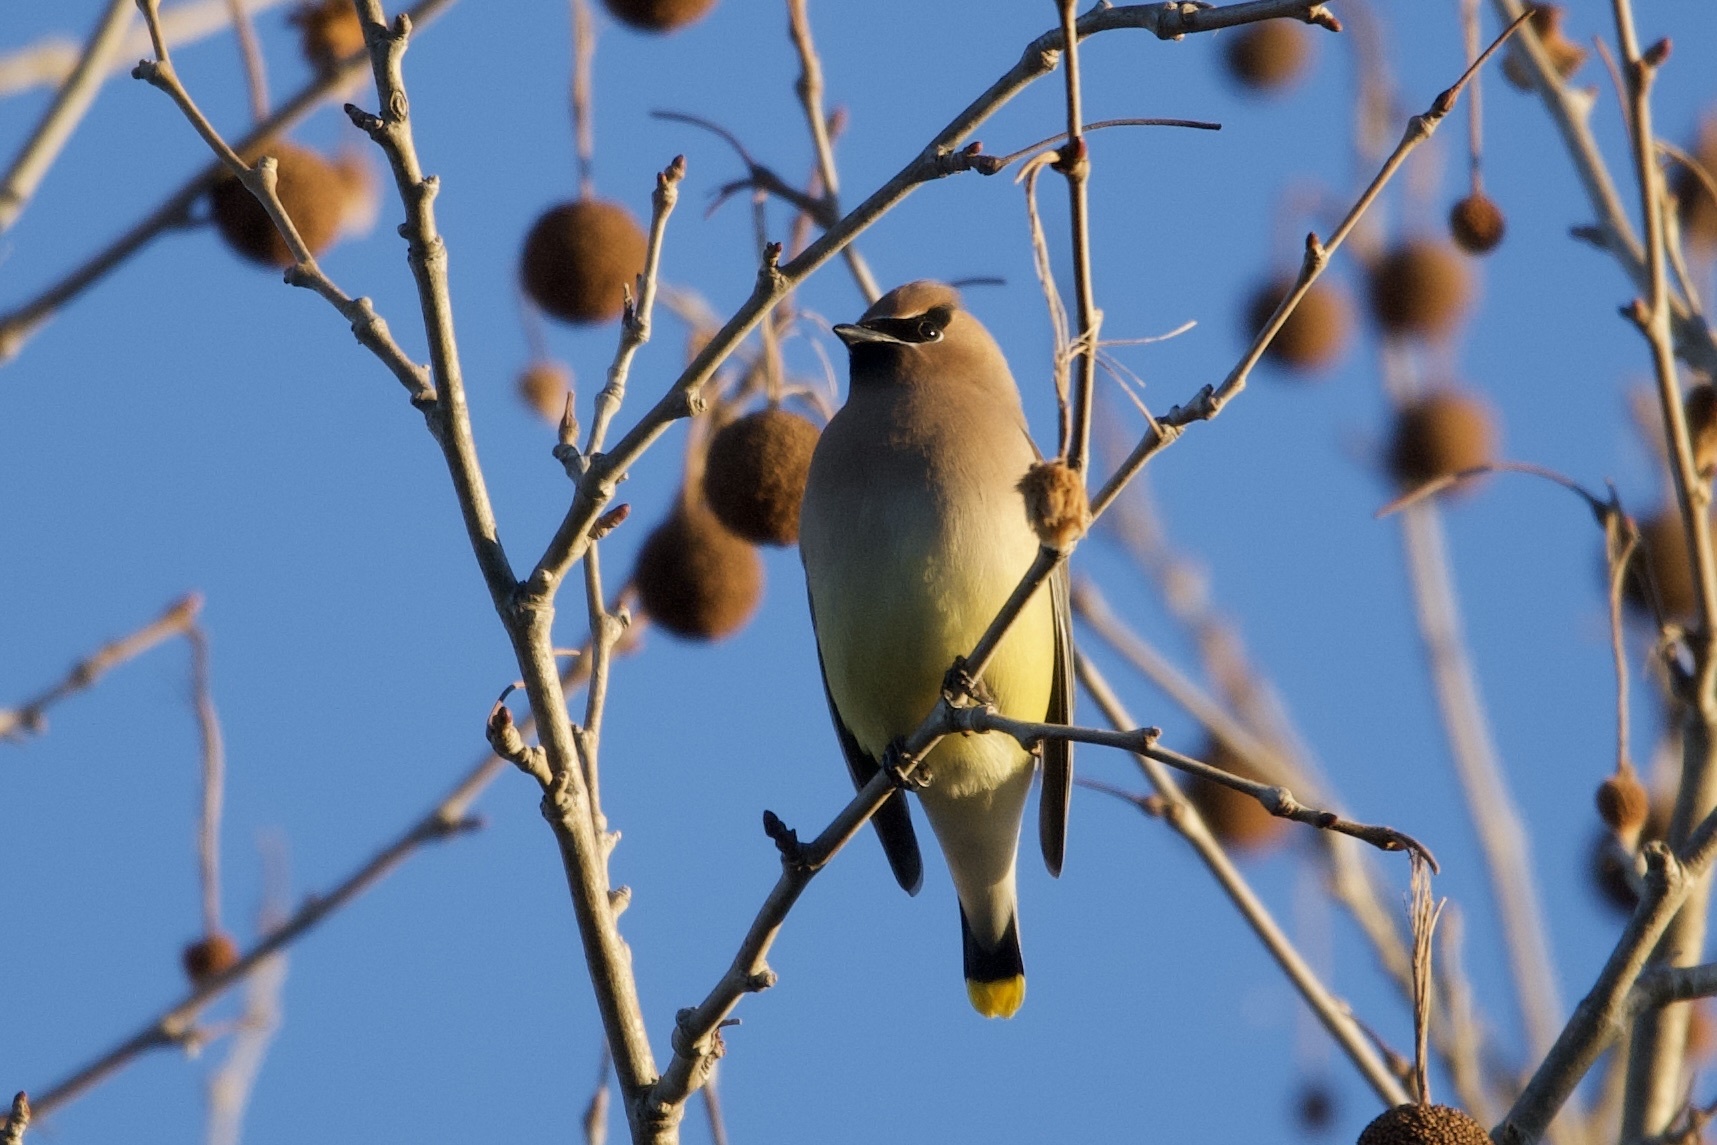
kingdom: Animalia
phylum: Chordata
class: Aves
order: Passeriformes
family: Bombycillidae
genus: Bombycilla
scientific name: Bombycilla cedrorum
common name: Cedar waxwing
